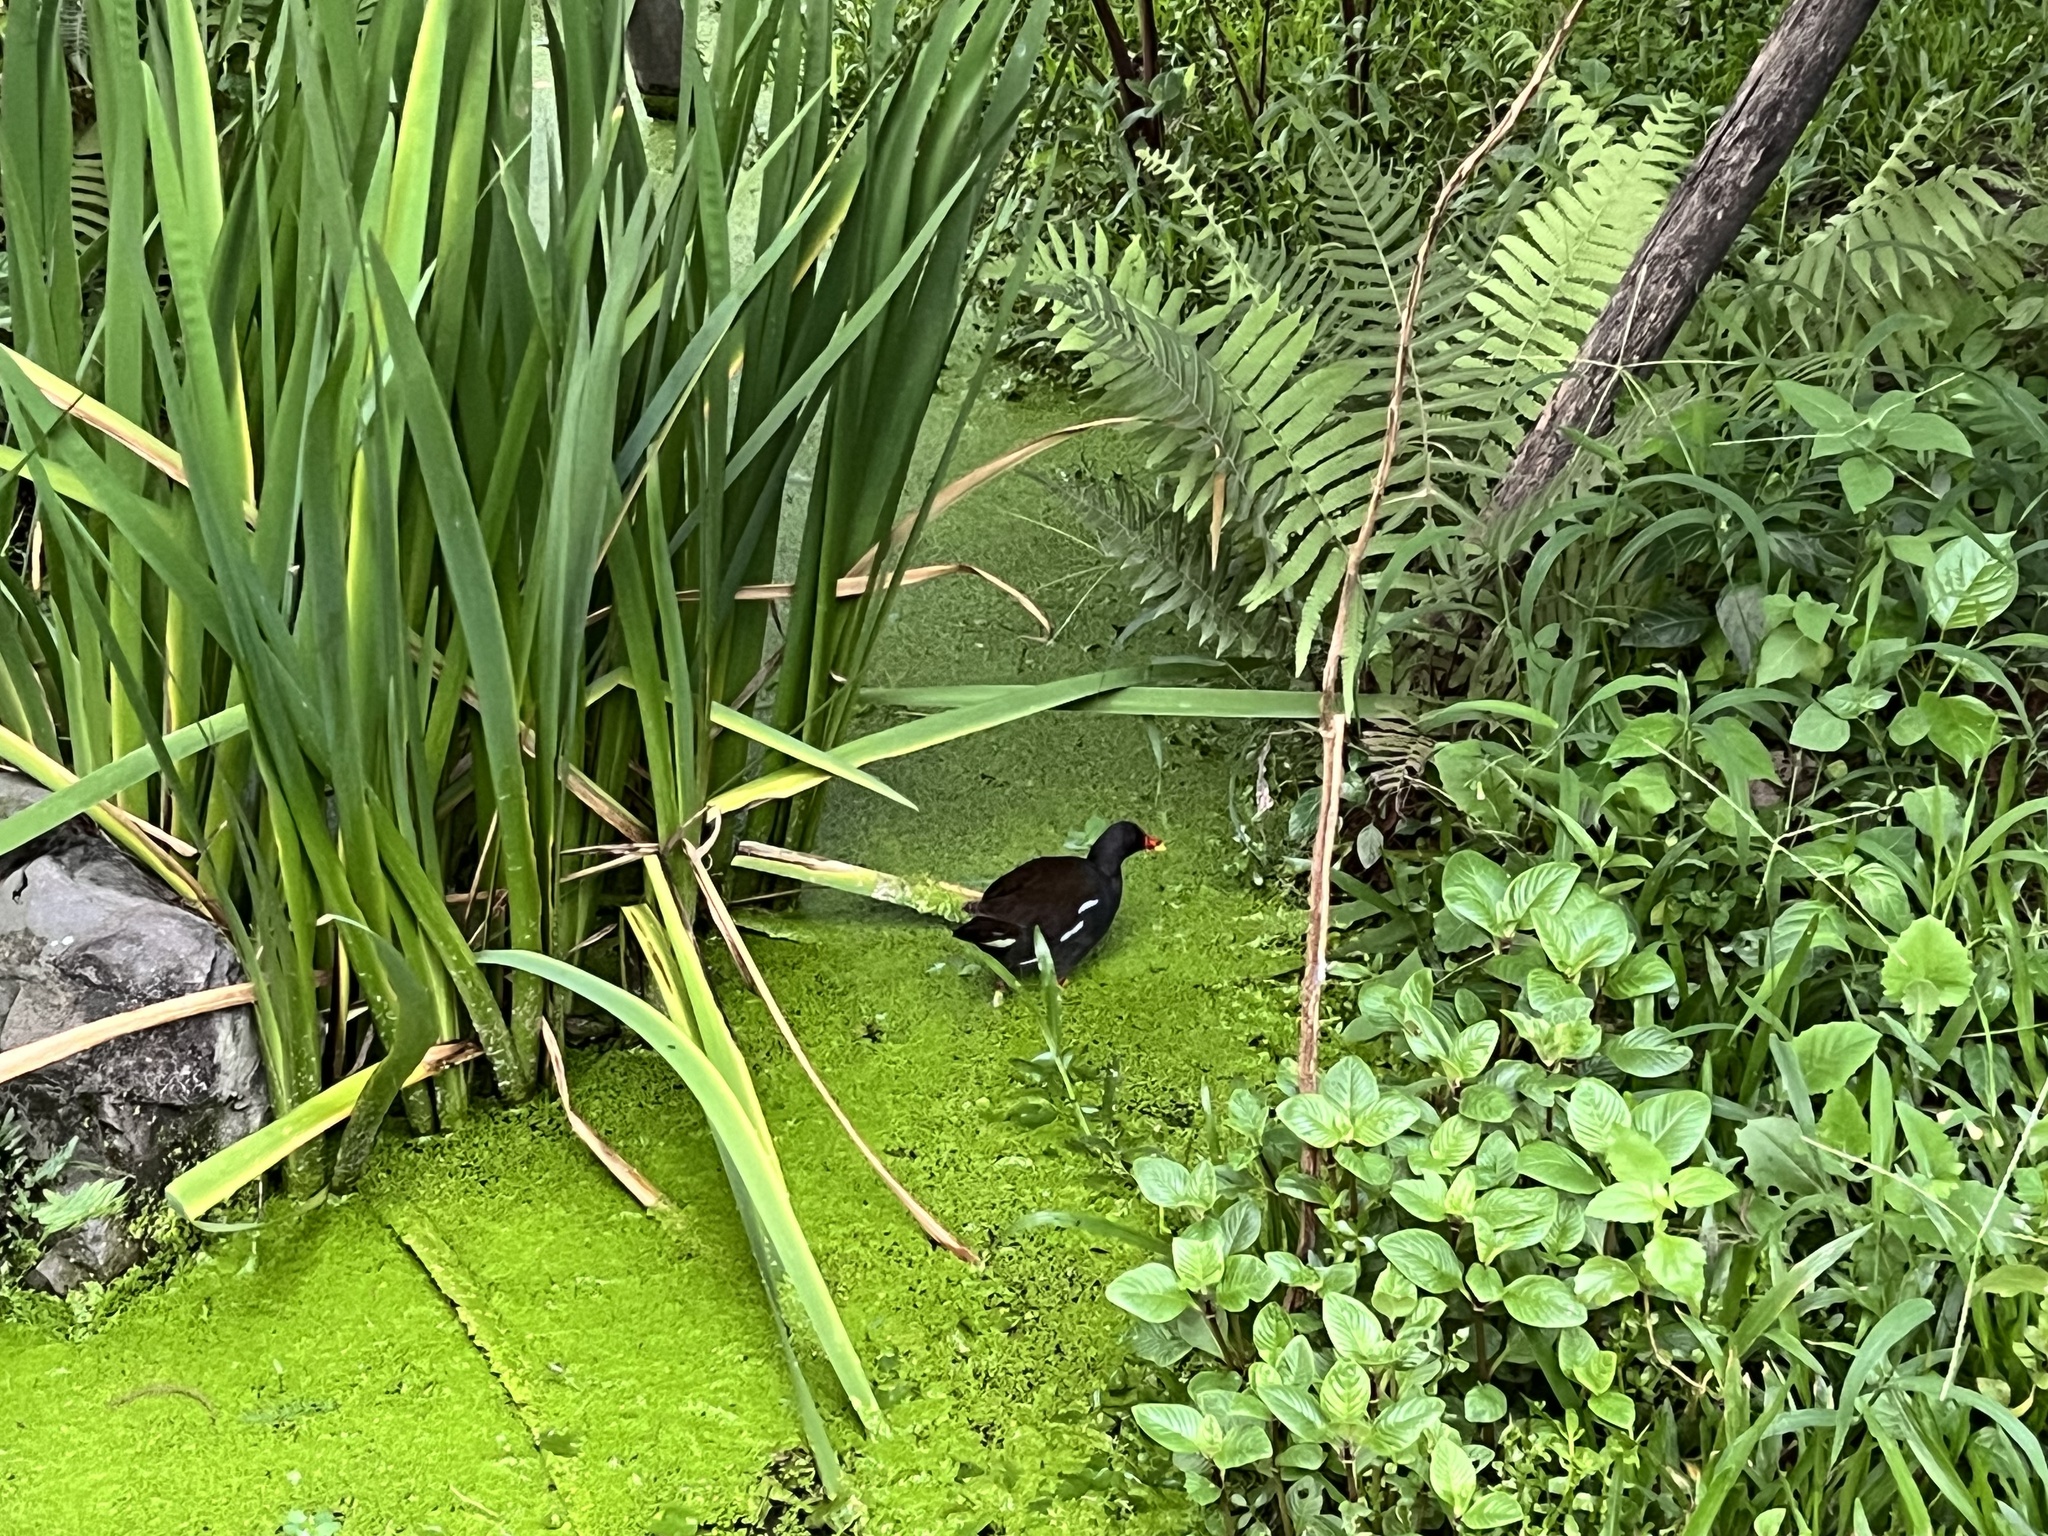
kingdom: Animalia
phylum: Chordata
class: Aves
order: Gruiformes
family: Rallidae
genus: Gallinula
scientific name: Gallinula chloropus
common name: Common moorhen
